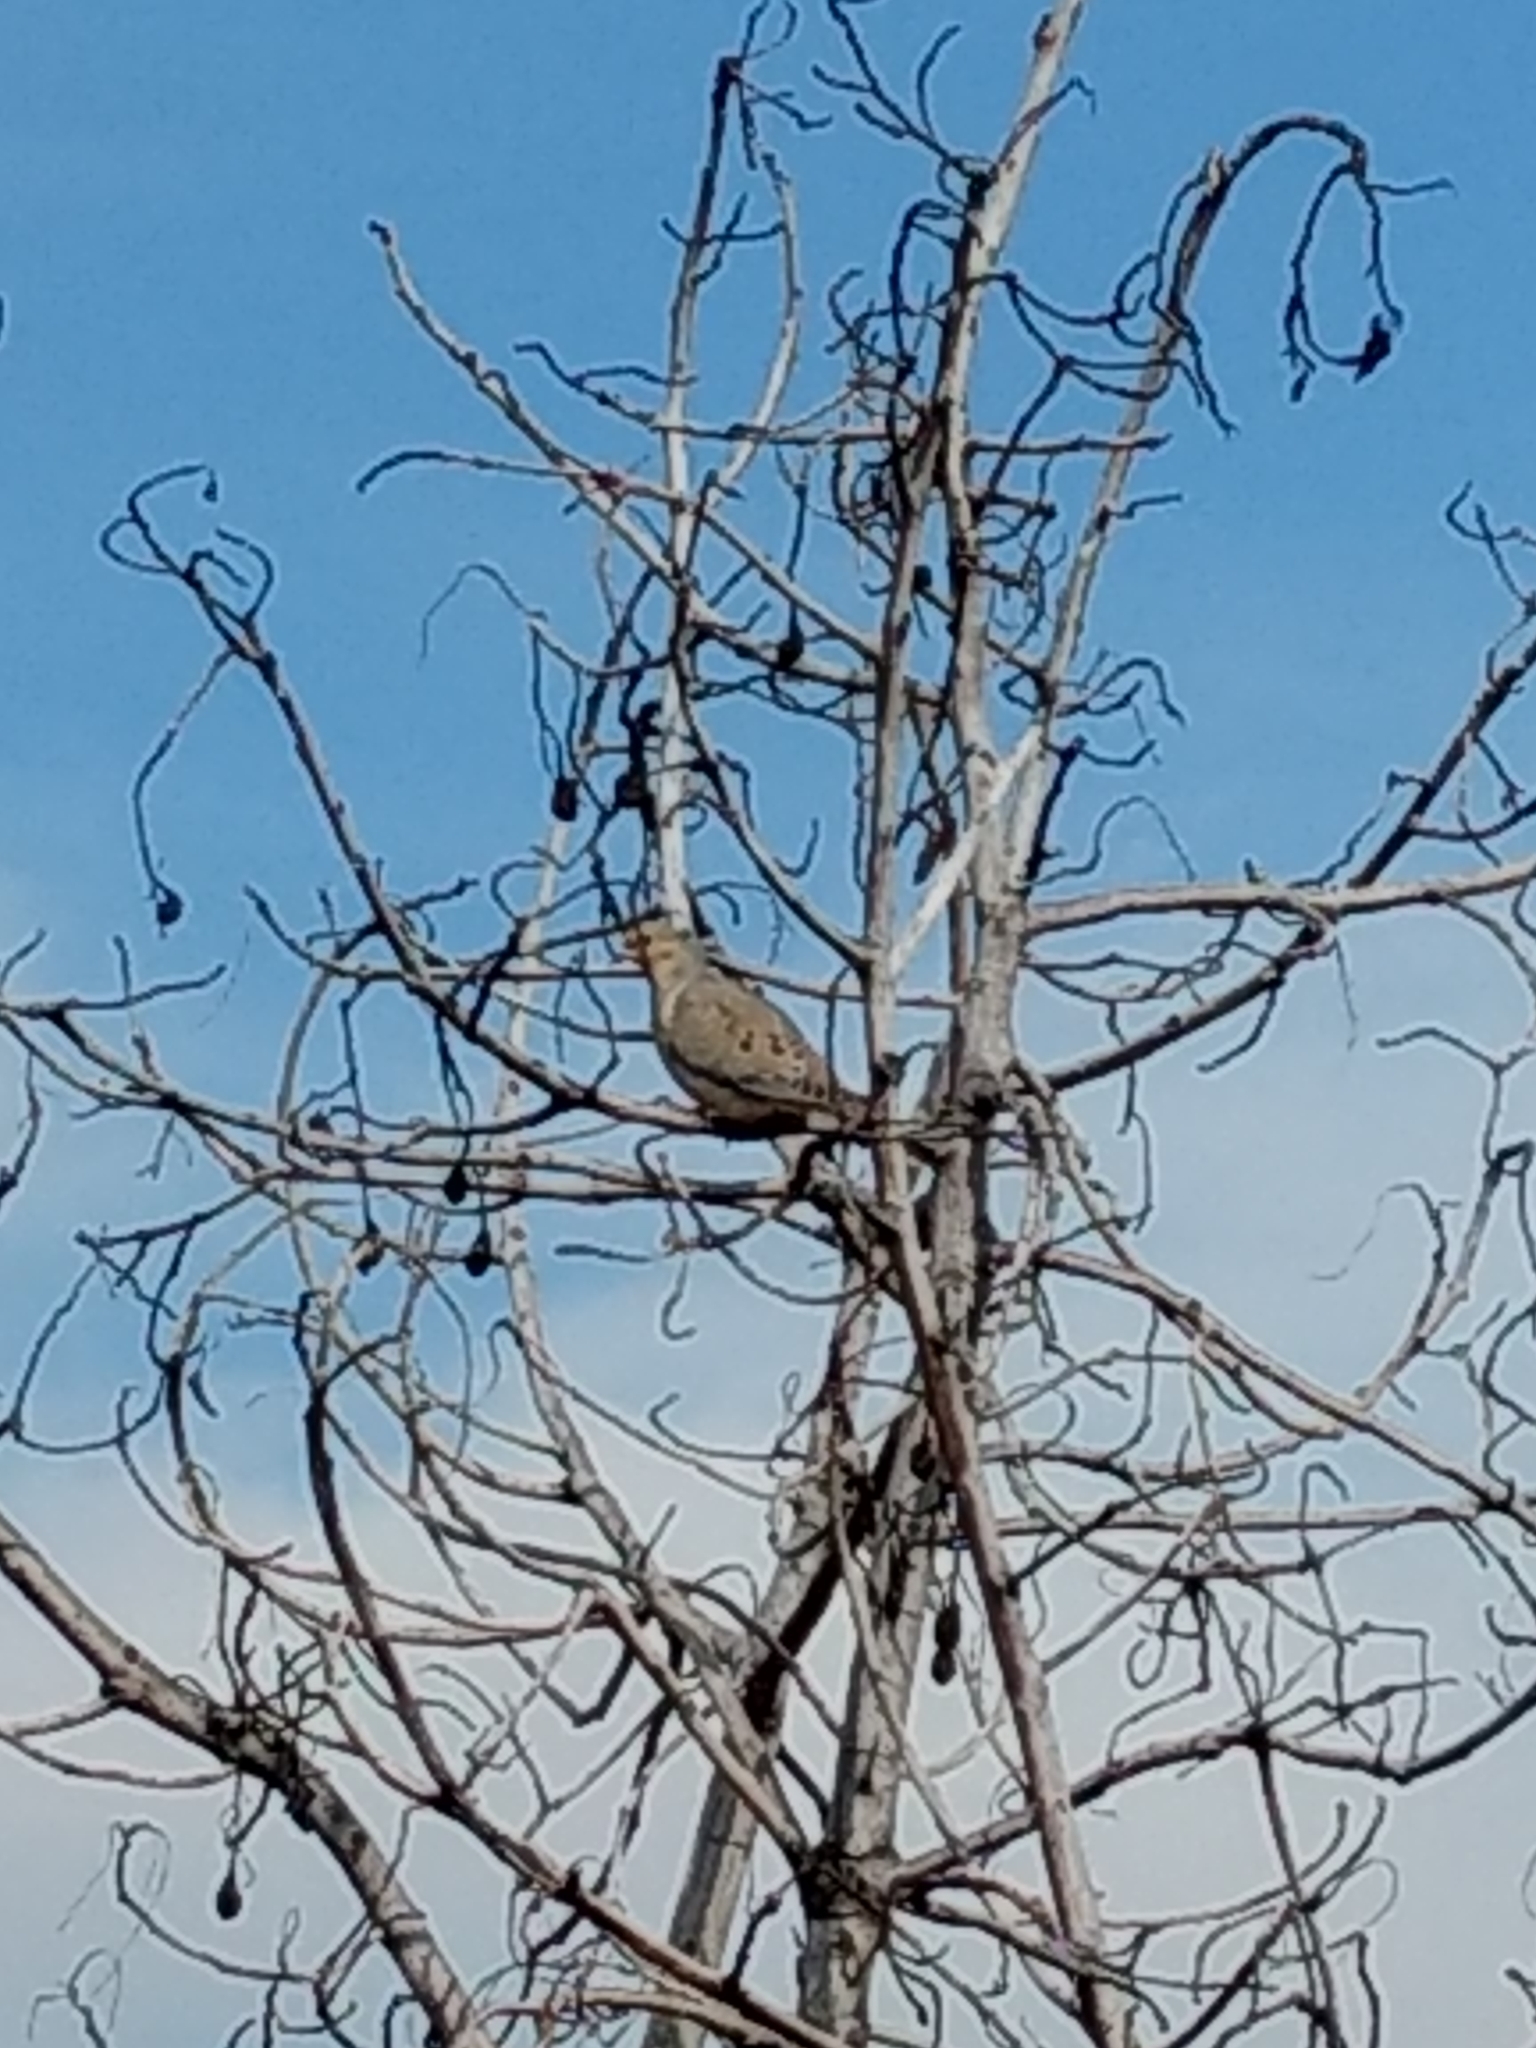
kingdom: Animalia
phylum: Chordata
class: Aves
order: Columbiformes
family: Columbidae
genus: Zenaida
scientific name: Zenaida macroura
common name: Mourning dove
